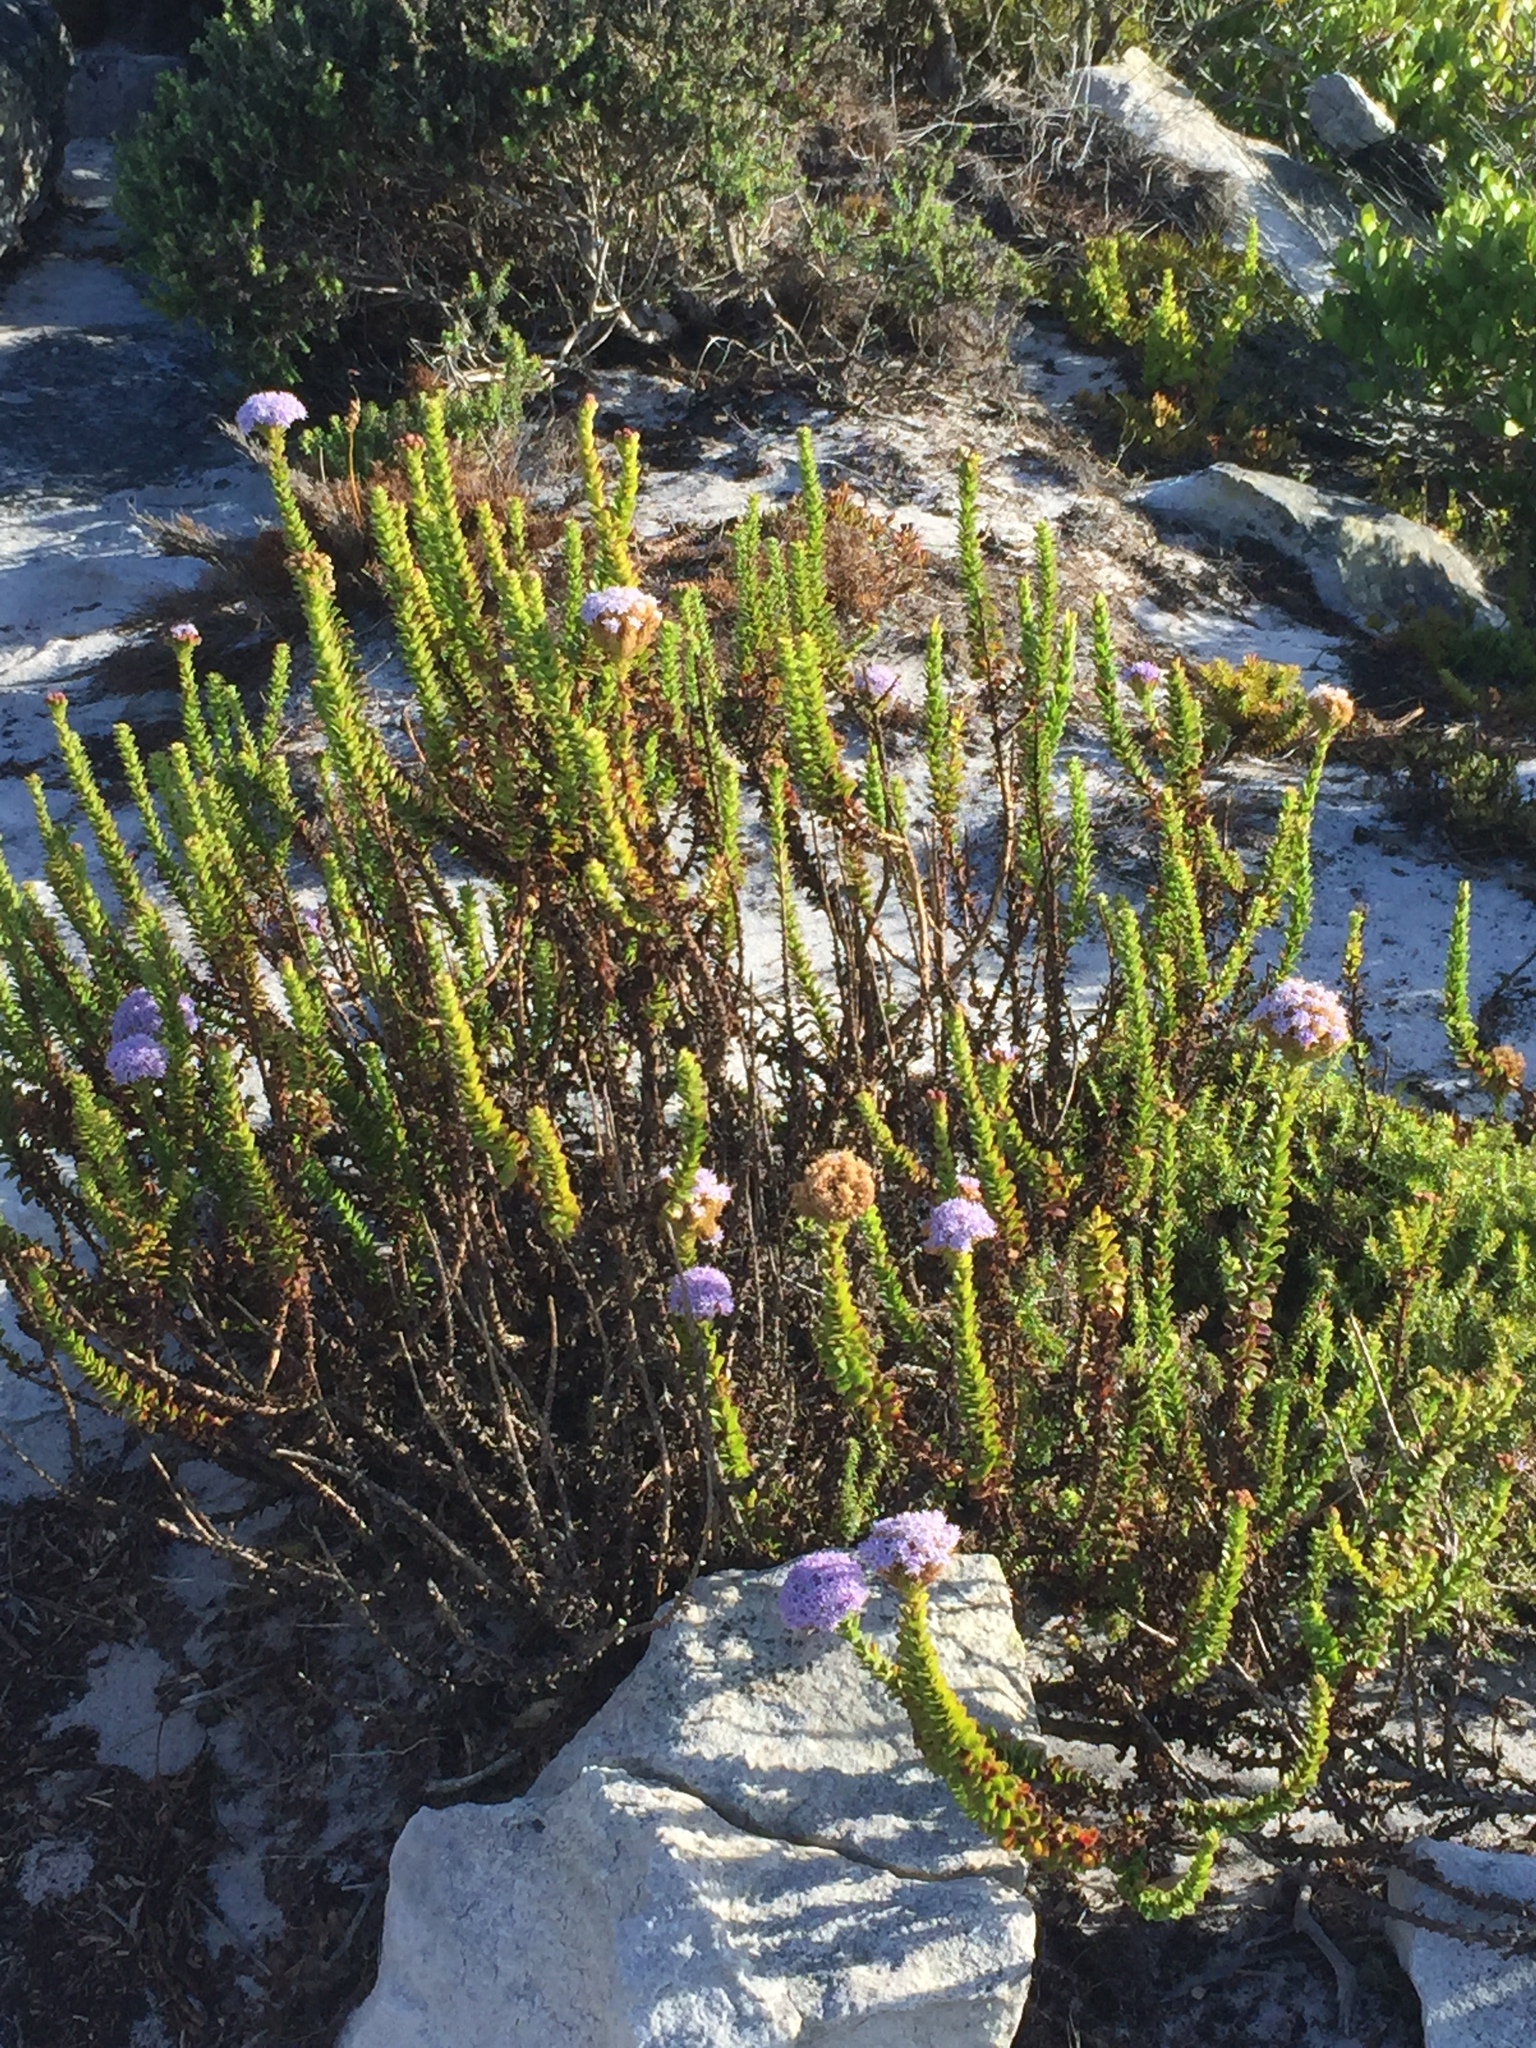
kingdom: Plantae
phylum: Tracheophyta
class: Magnoliopsida
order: Lamiales
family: Scrophulariaceae
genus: Pseudoselago
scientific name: Pseudoselago serrata
